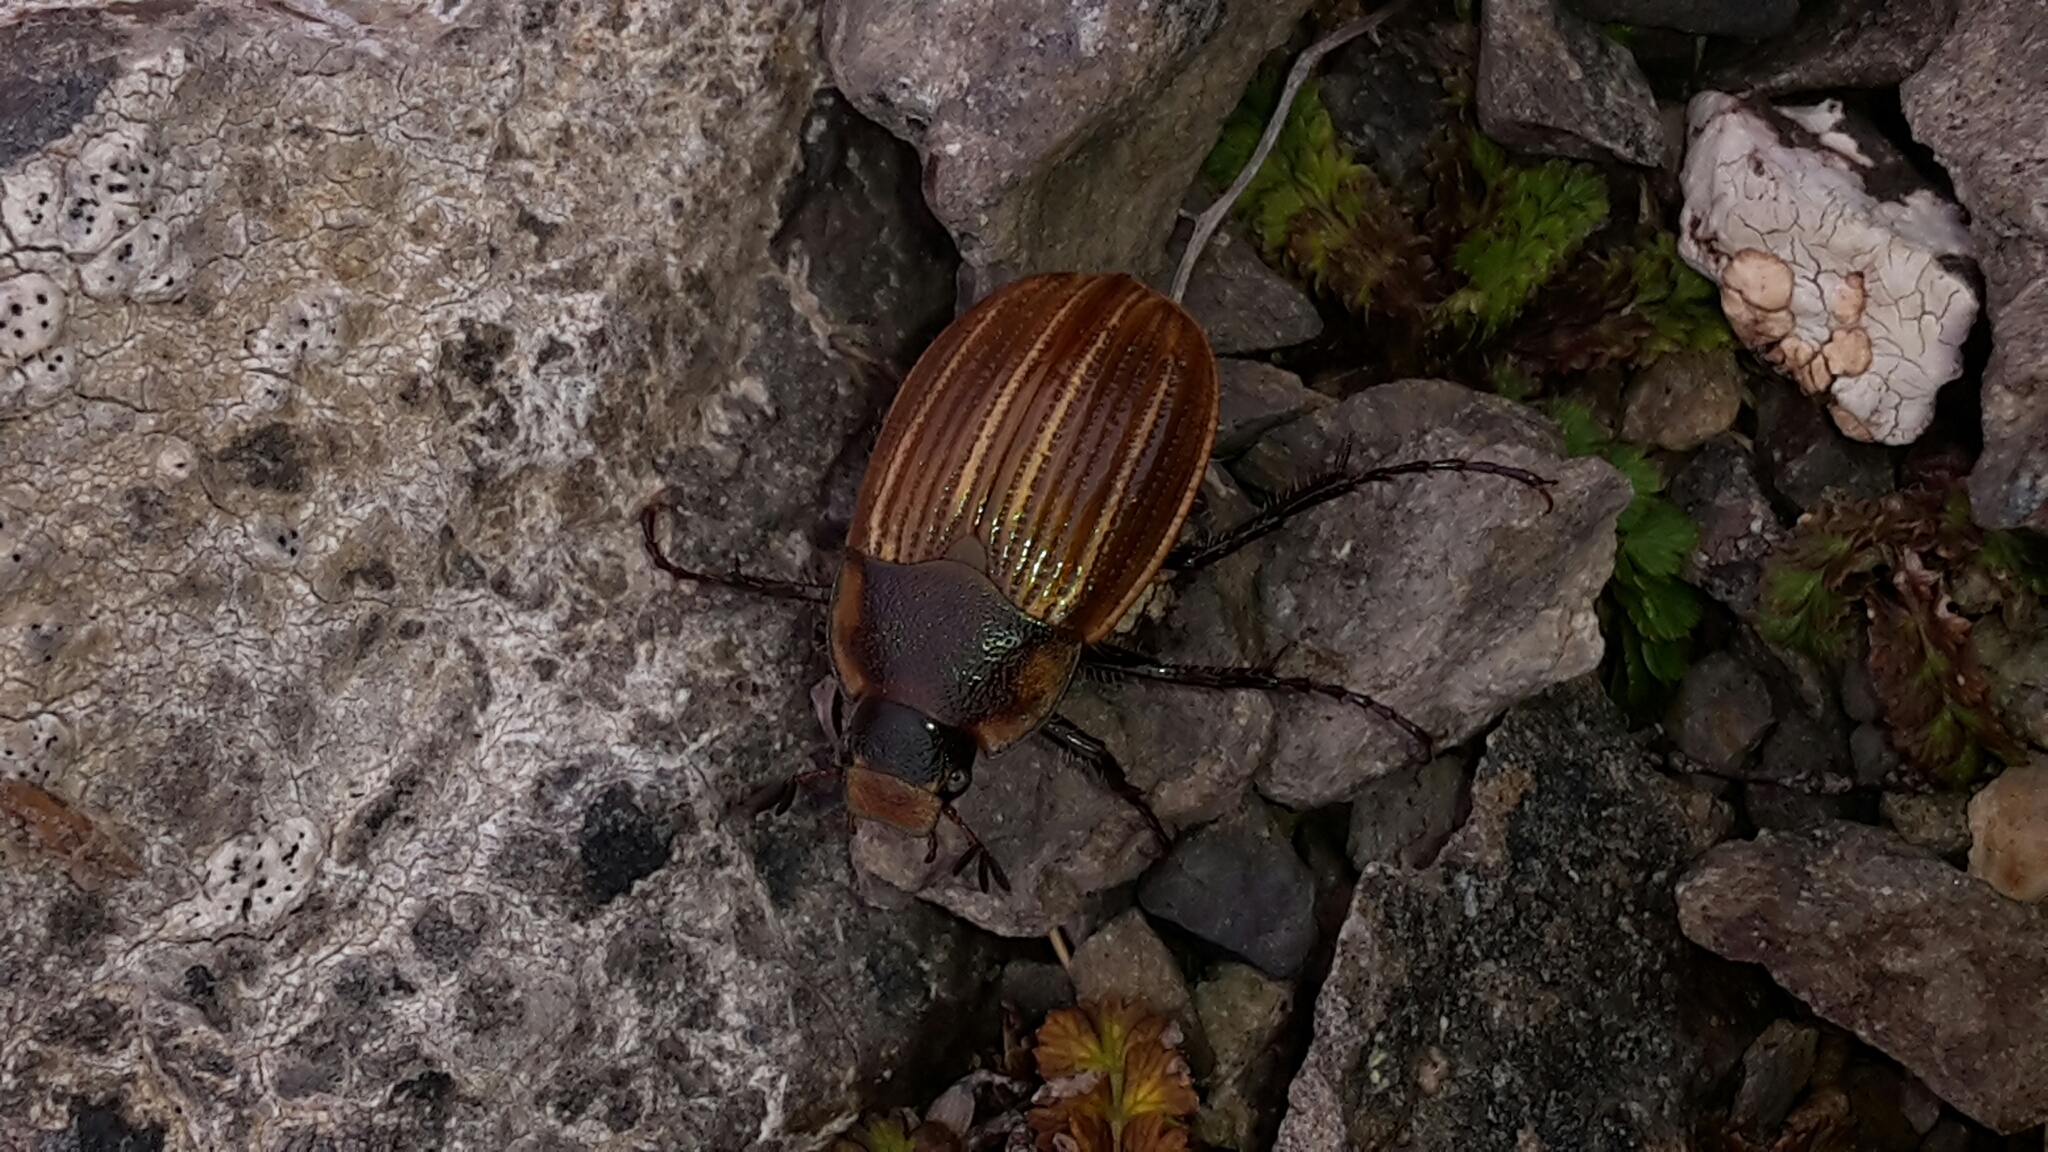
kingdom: Animalia
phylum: Arthropoda
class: Insecta
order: Coleoptera
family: Scarabaeidae
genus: Stethaspis
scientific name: Stethaspis simmondsi
